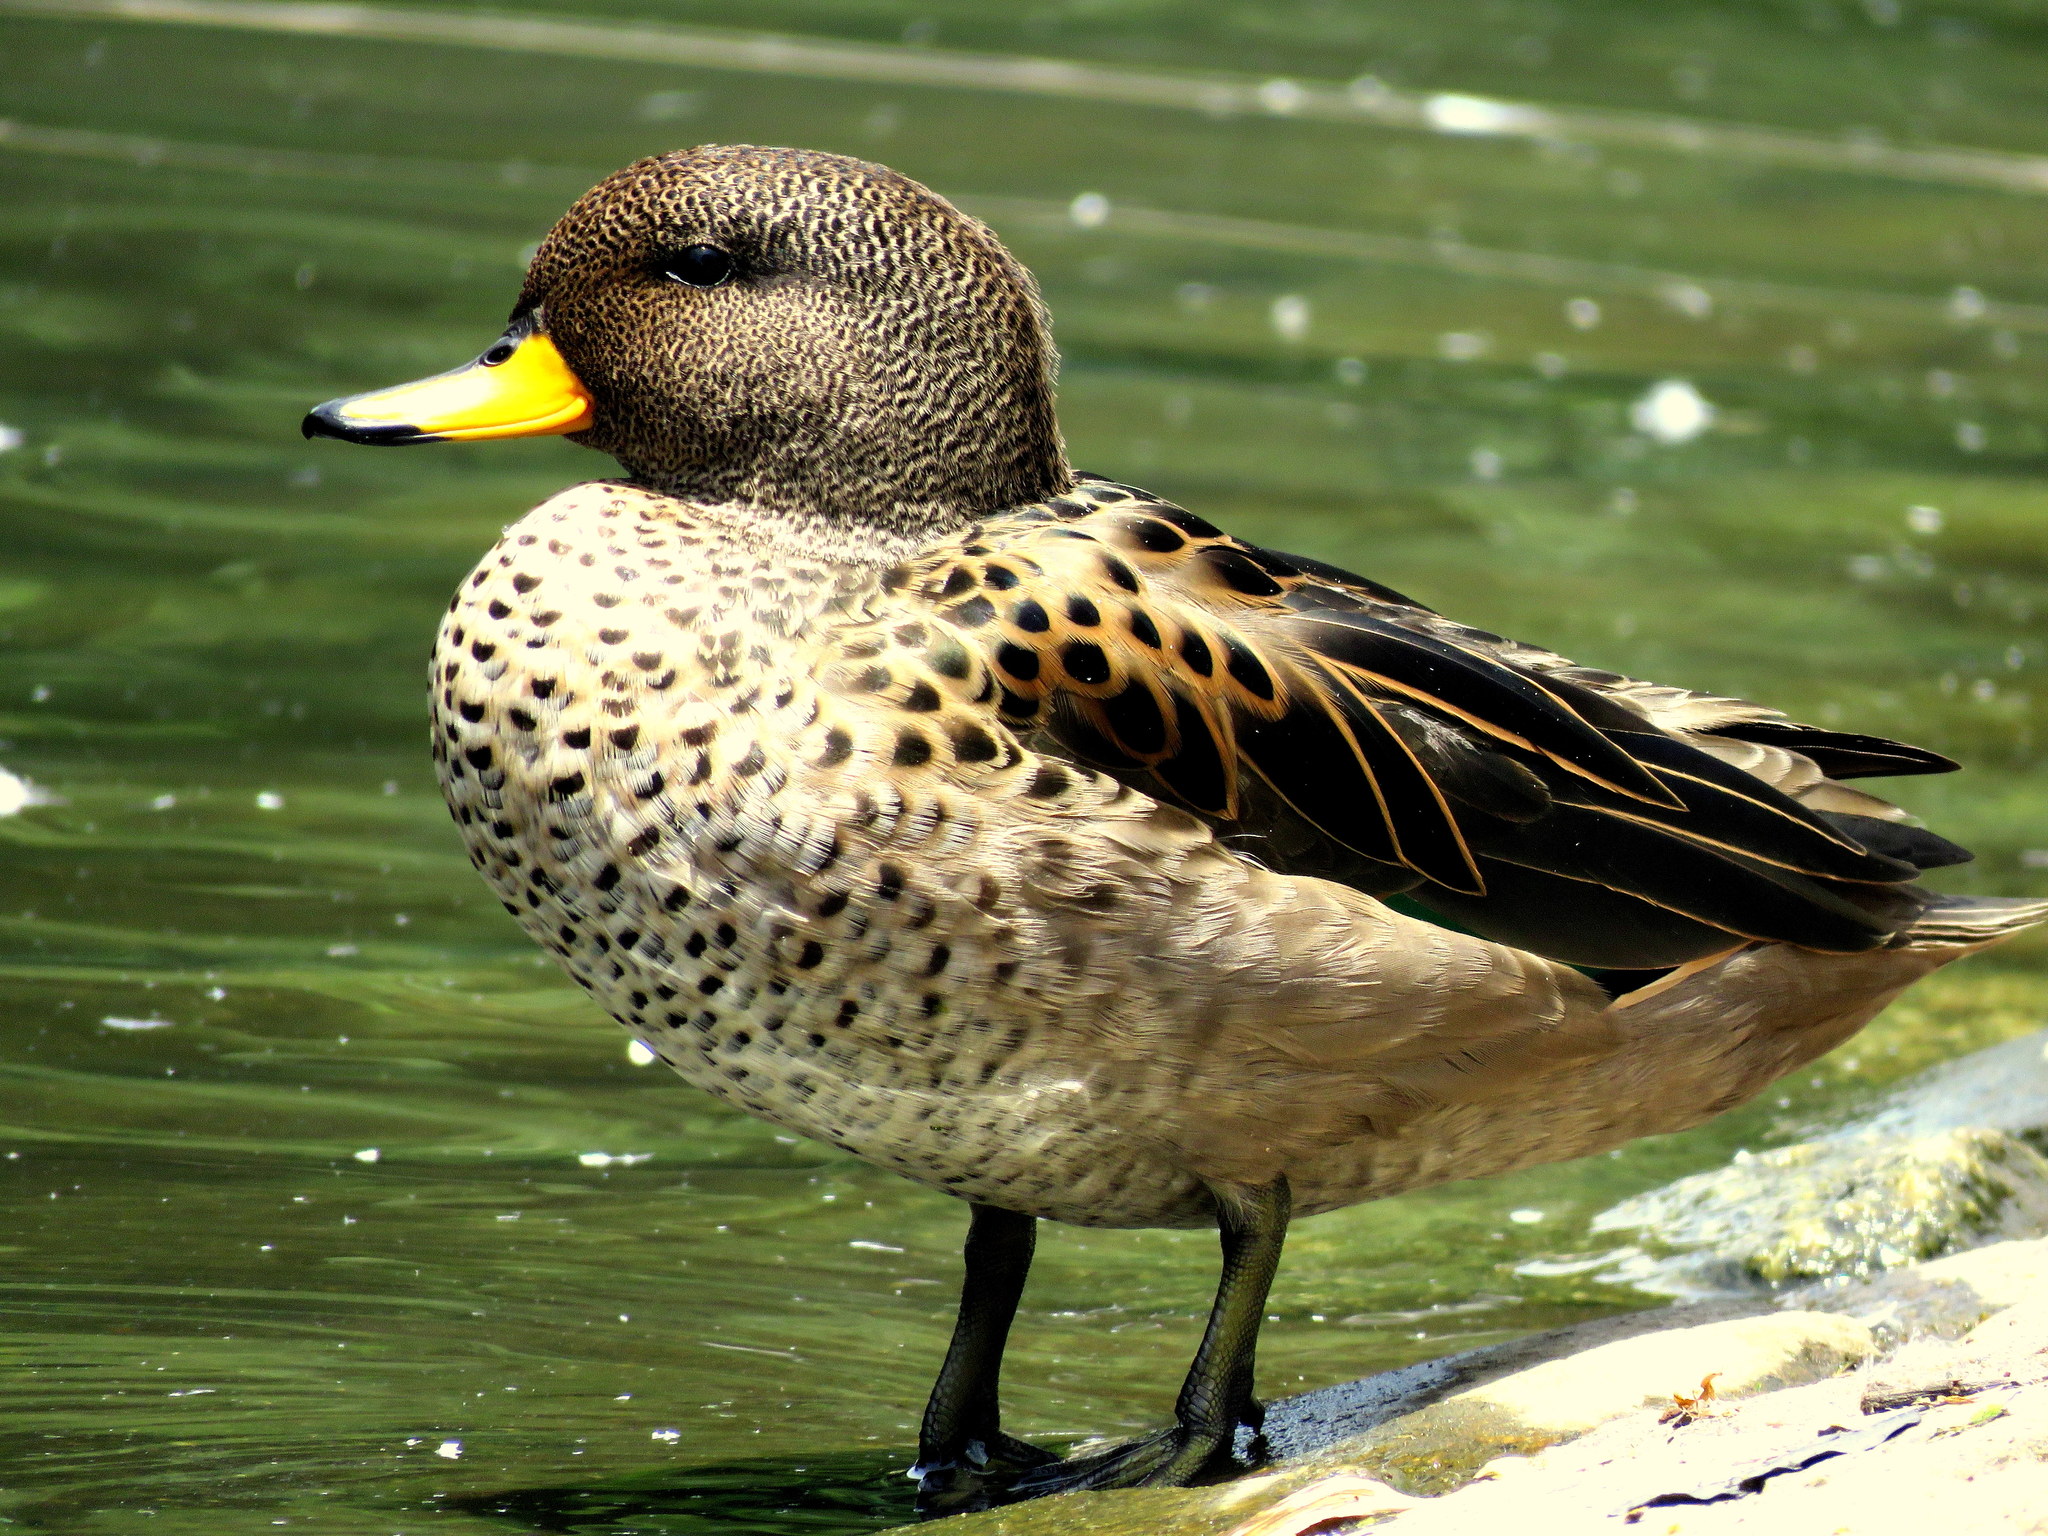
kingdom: Animalia
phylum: Chordata
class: Aves
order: Anseriformes
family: Anatidae
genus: Anas
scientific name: Anas flavirostris
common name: Yellow-billed teal
